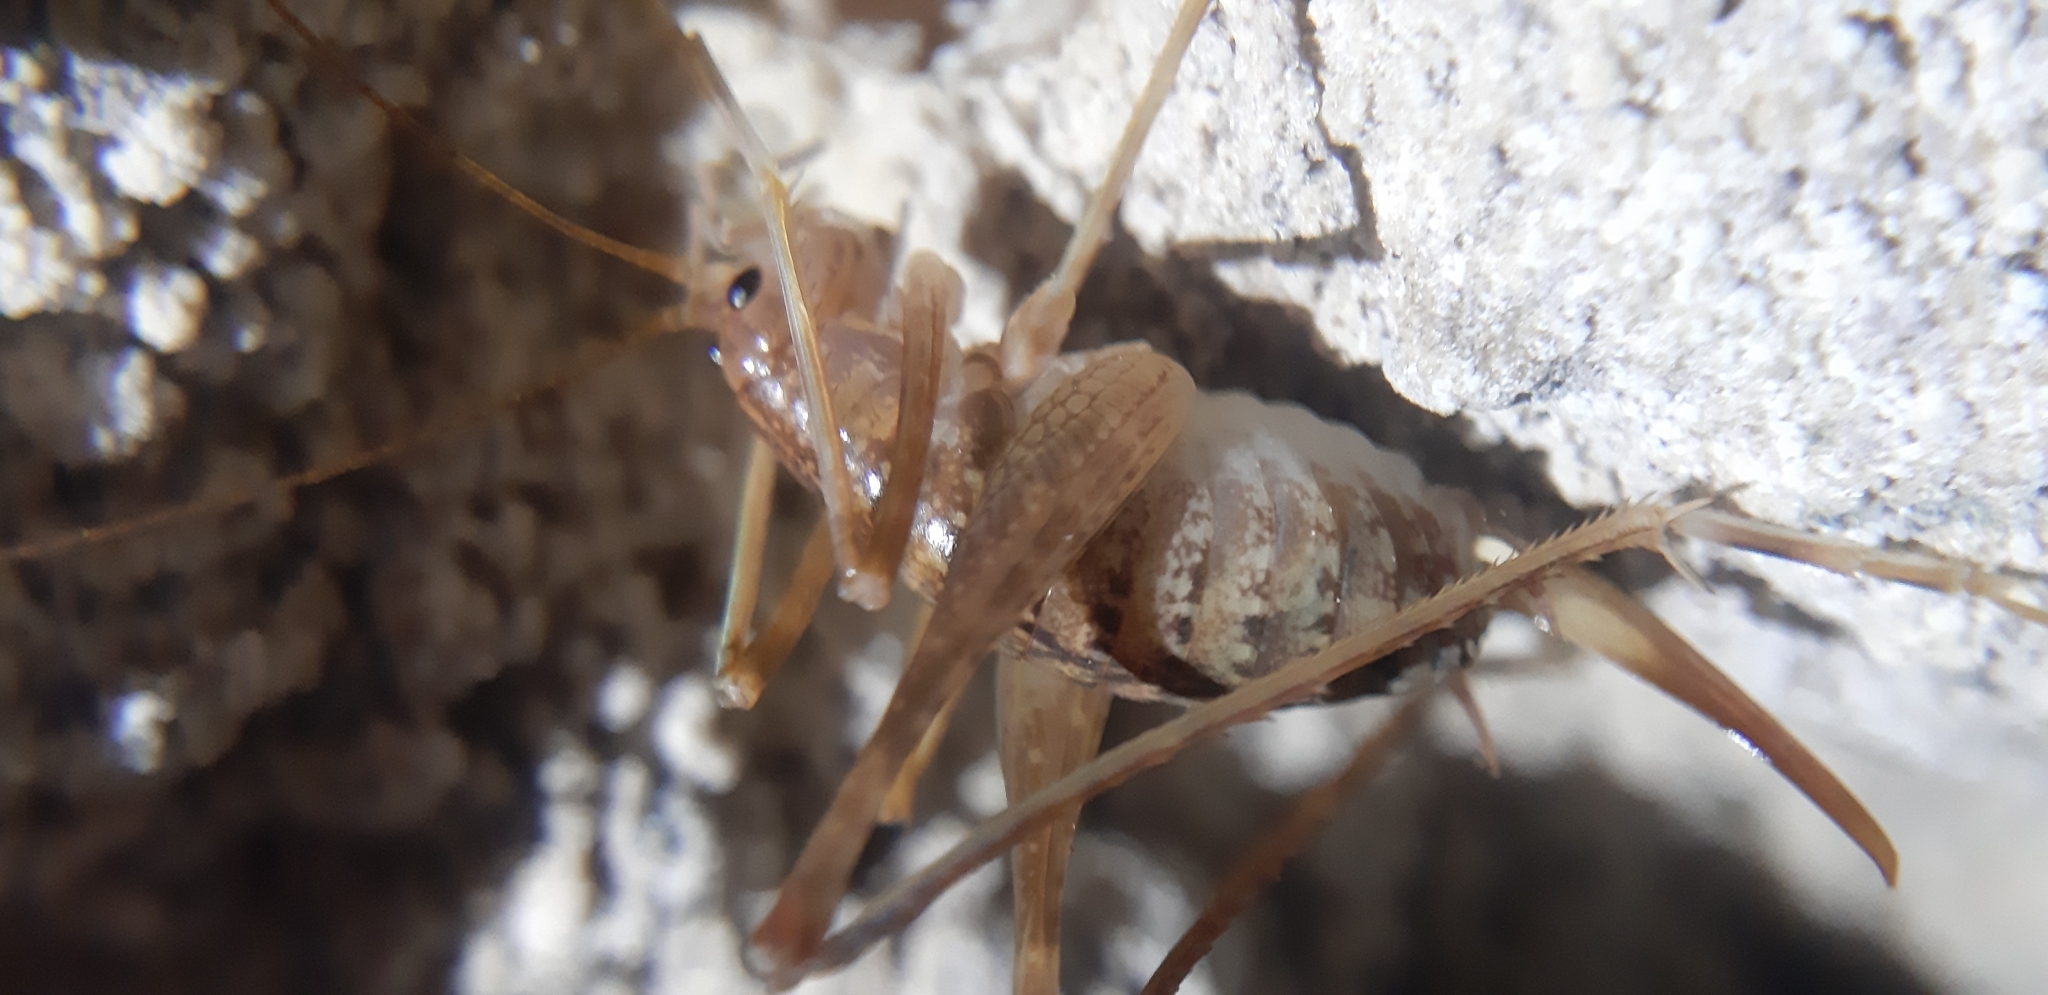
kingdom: Animalia
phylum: Arthropoda
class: Insecta
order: Orthoptera
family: Rhaphidophoridae
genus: Troglophilus
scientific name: Troglophilus andreinii
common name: Italian cave cricket
